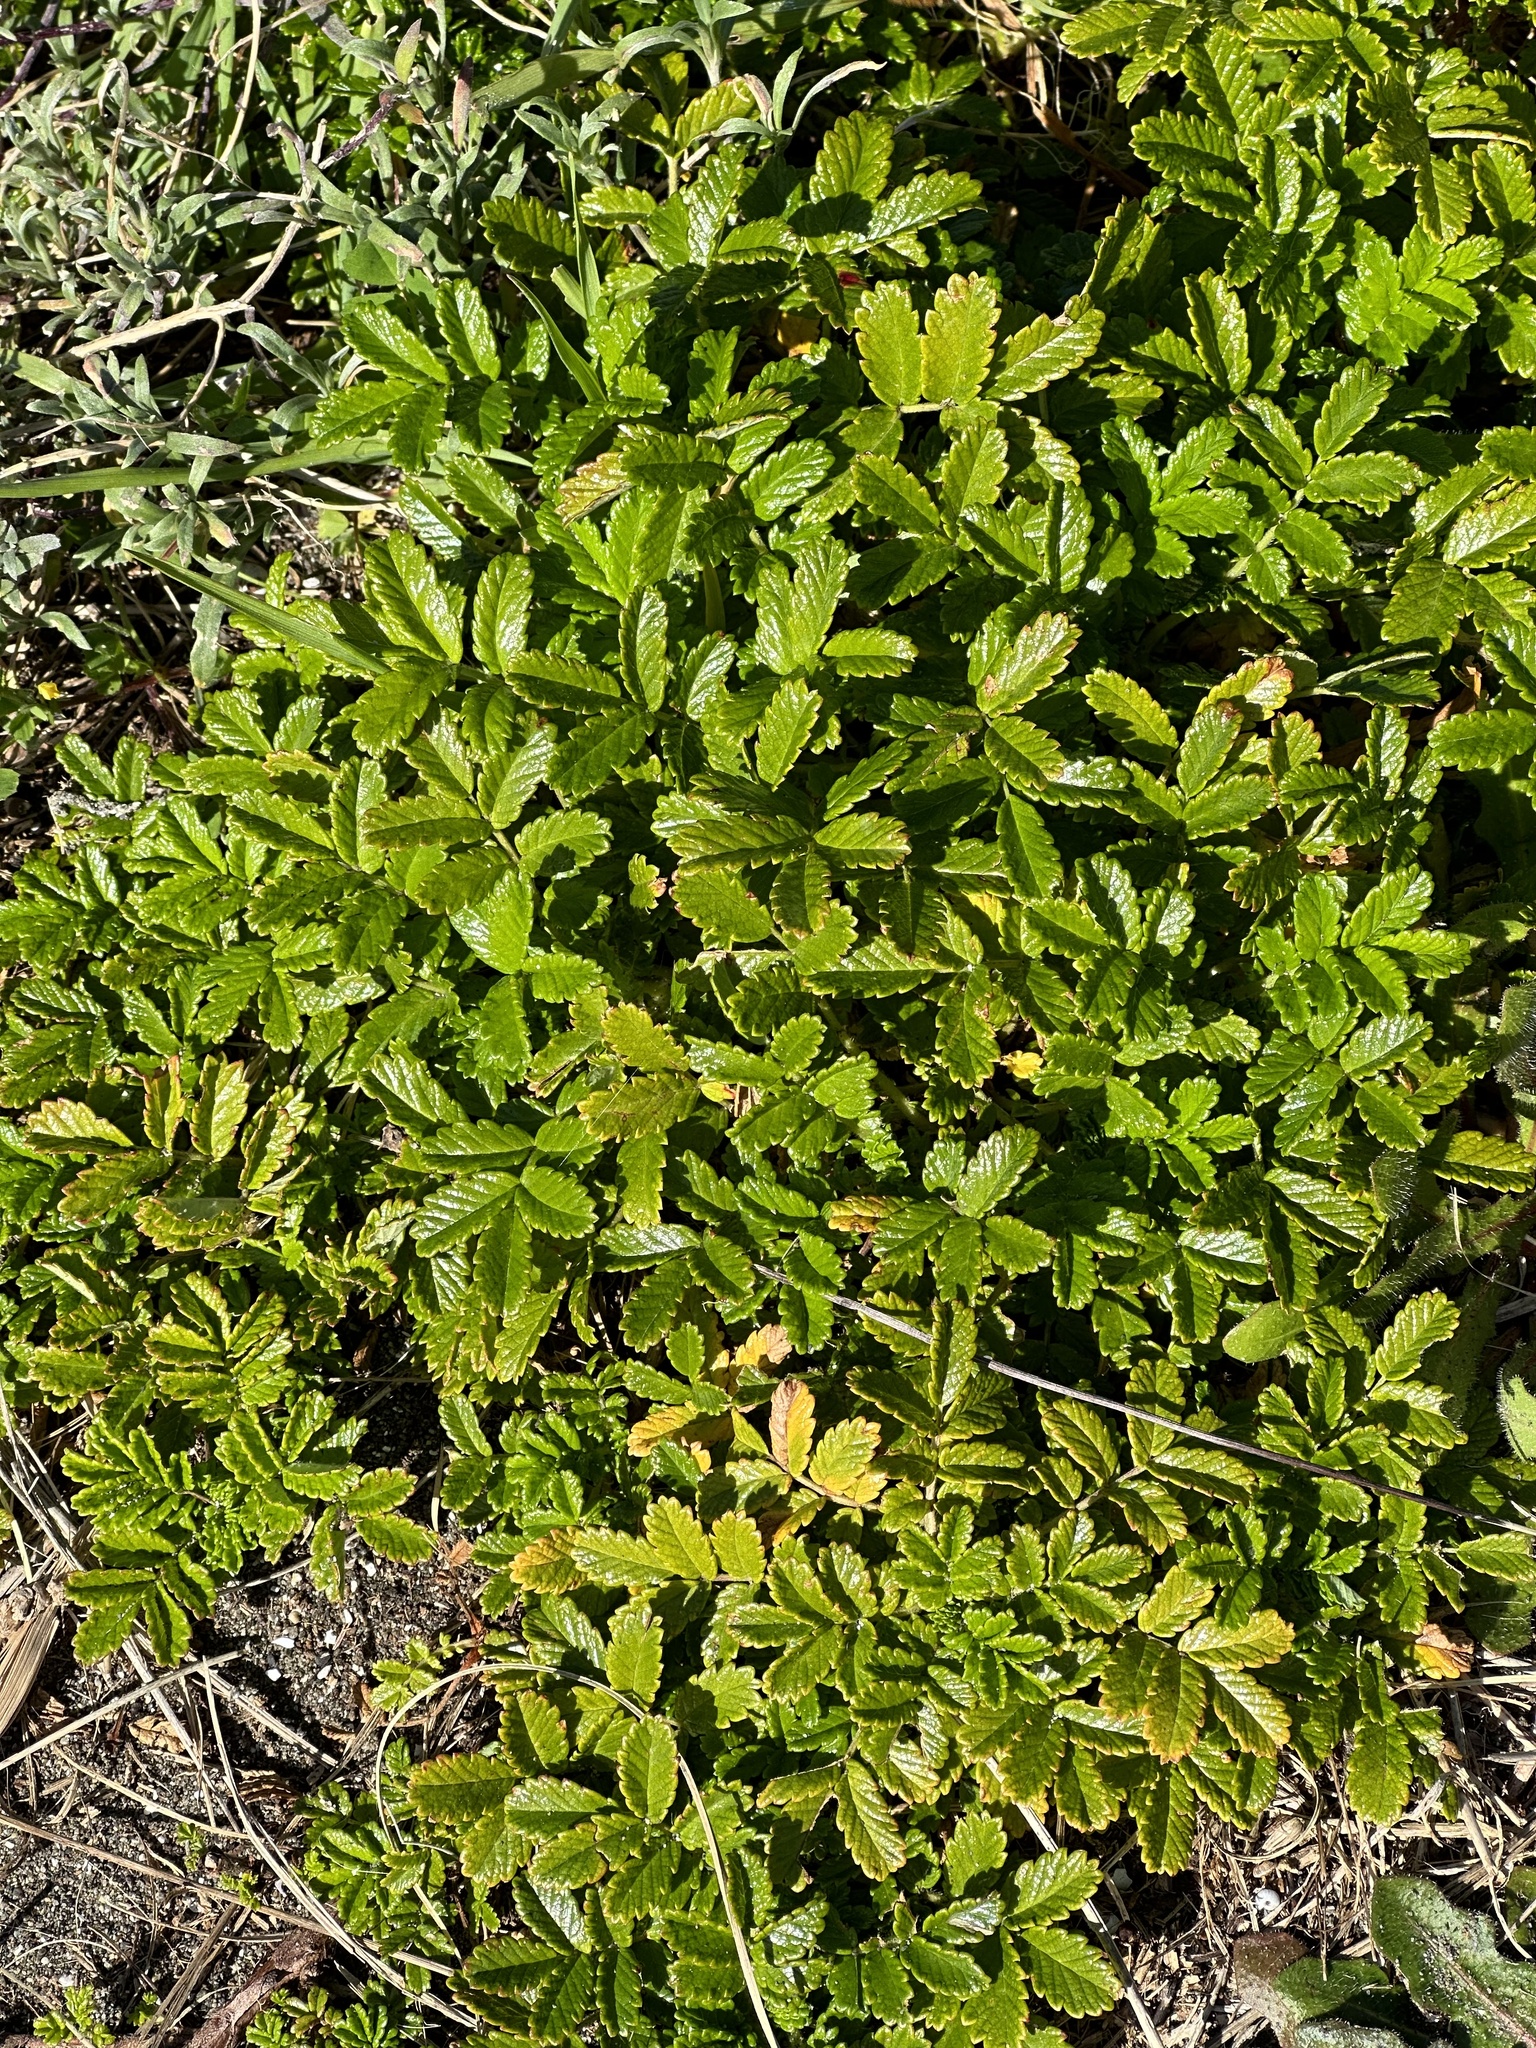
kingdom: Plantae
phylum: Tracheophyta
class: Magnoliopsida
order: Rosales
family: Rosaceae
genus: Acaena
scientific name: Acaena pallida
